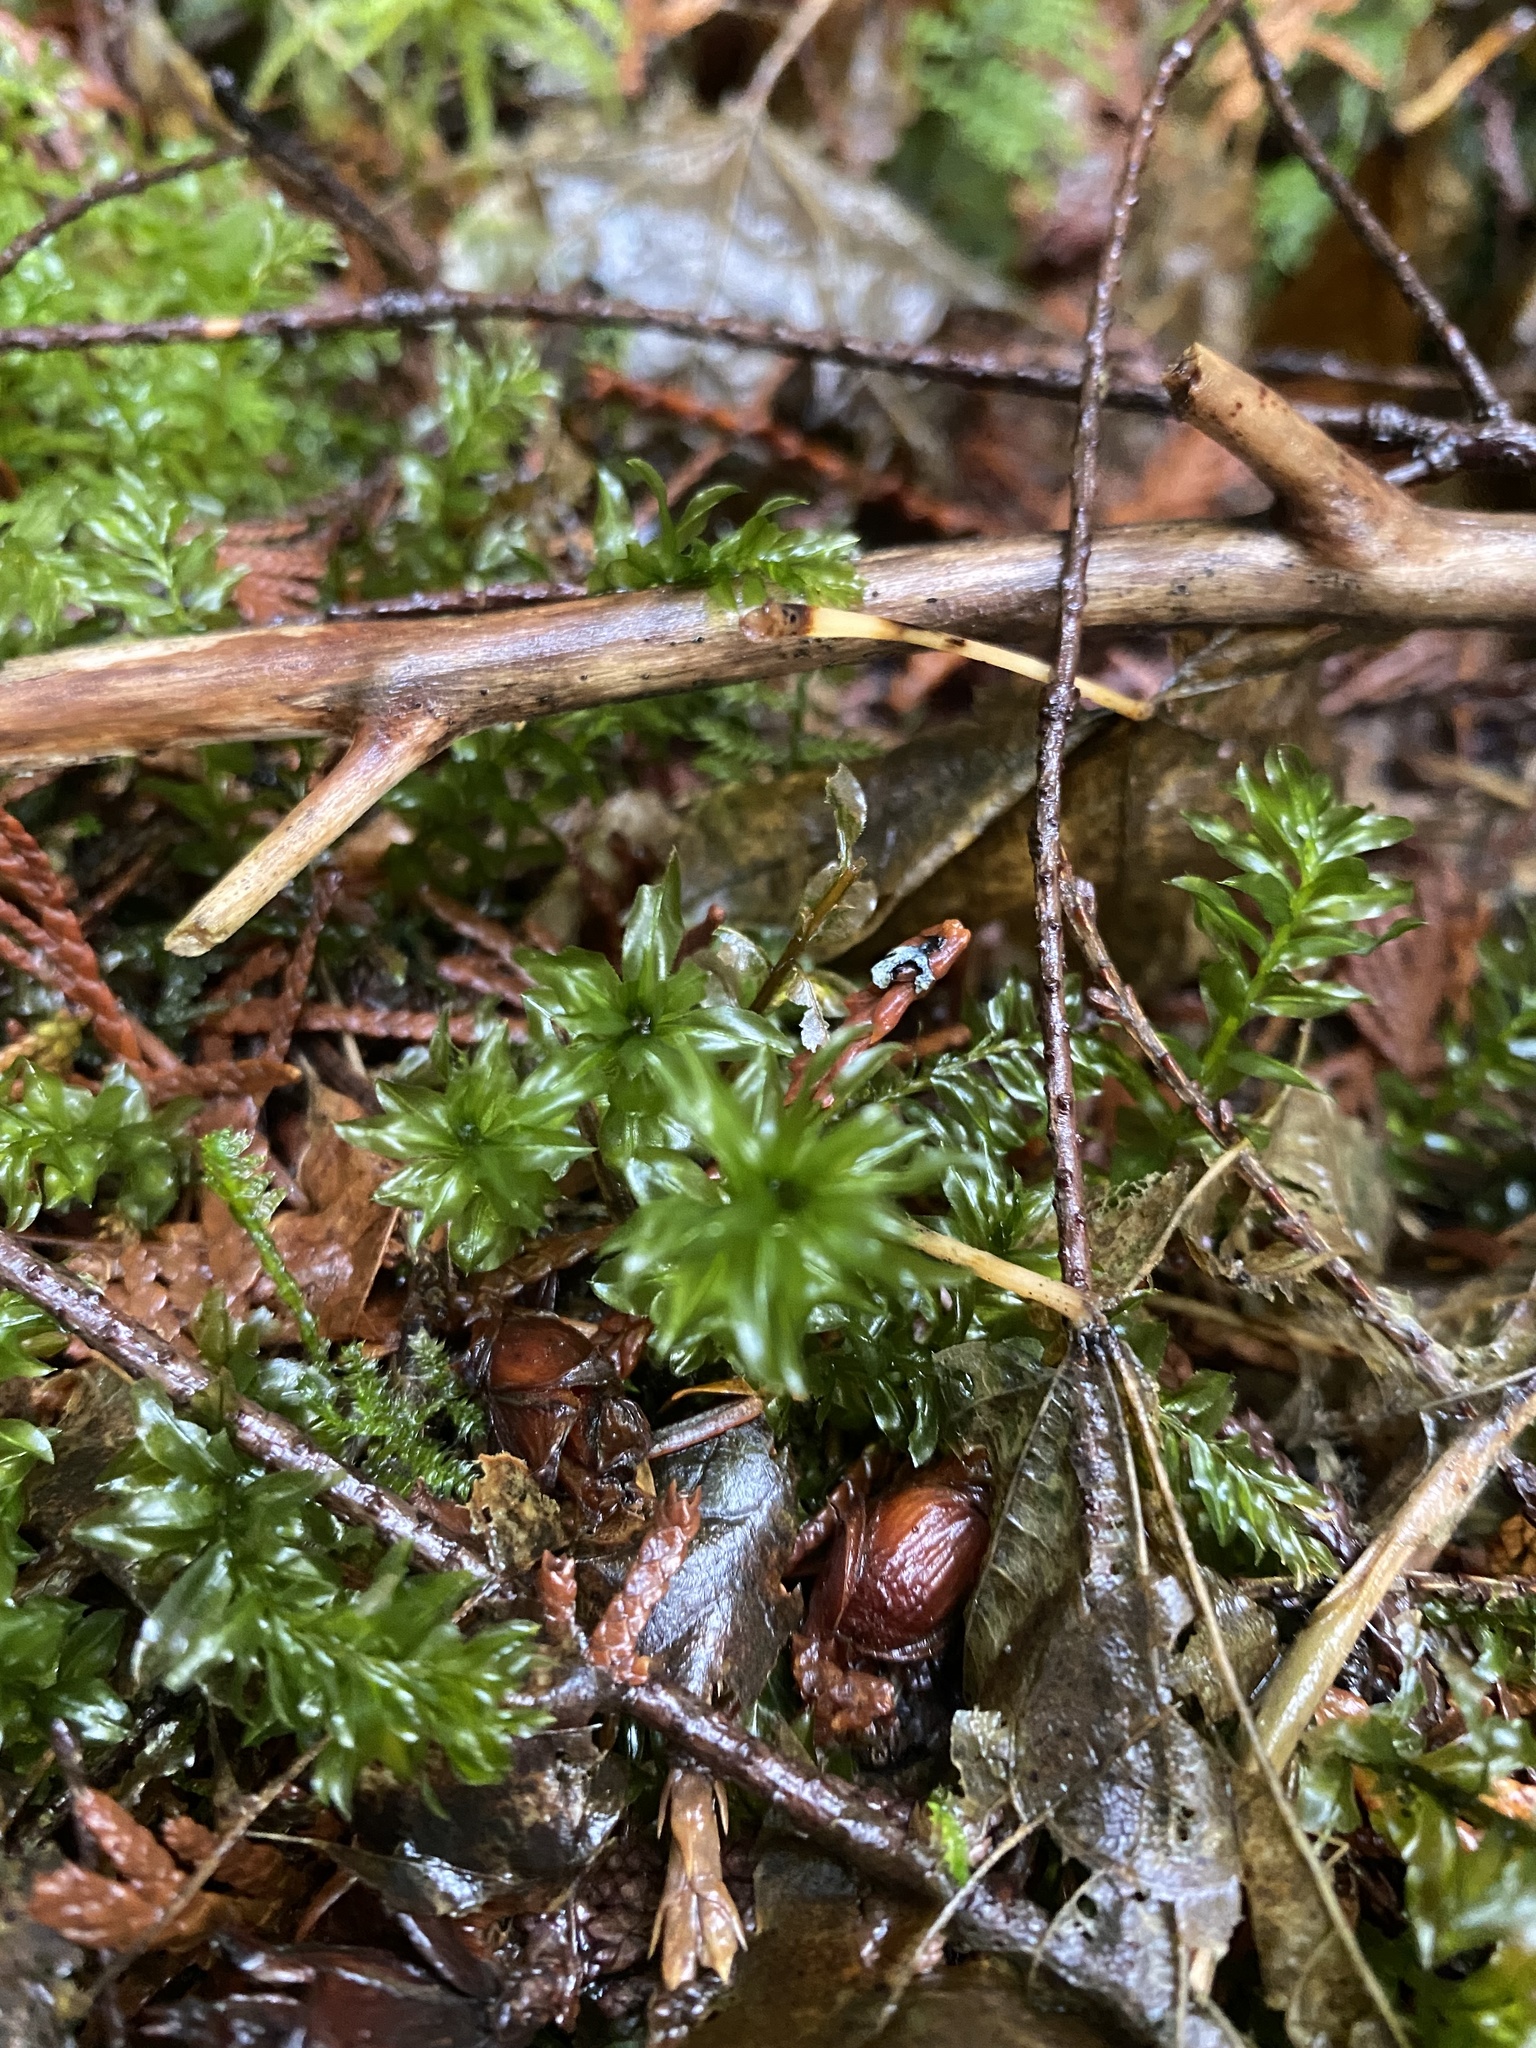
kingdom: Plantae
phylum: Bryophyta
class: Bryopsida
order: Bryales
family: Mniaceae
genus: Plagiomnium
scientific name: Plagiomnium insigne
